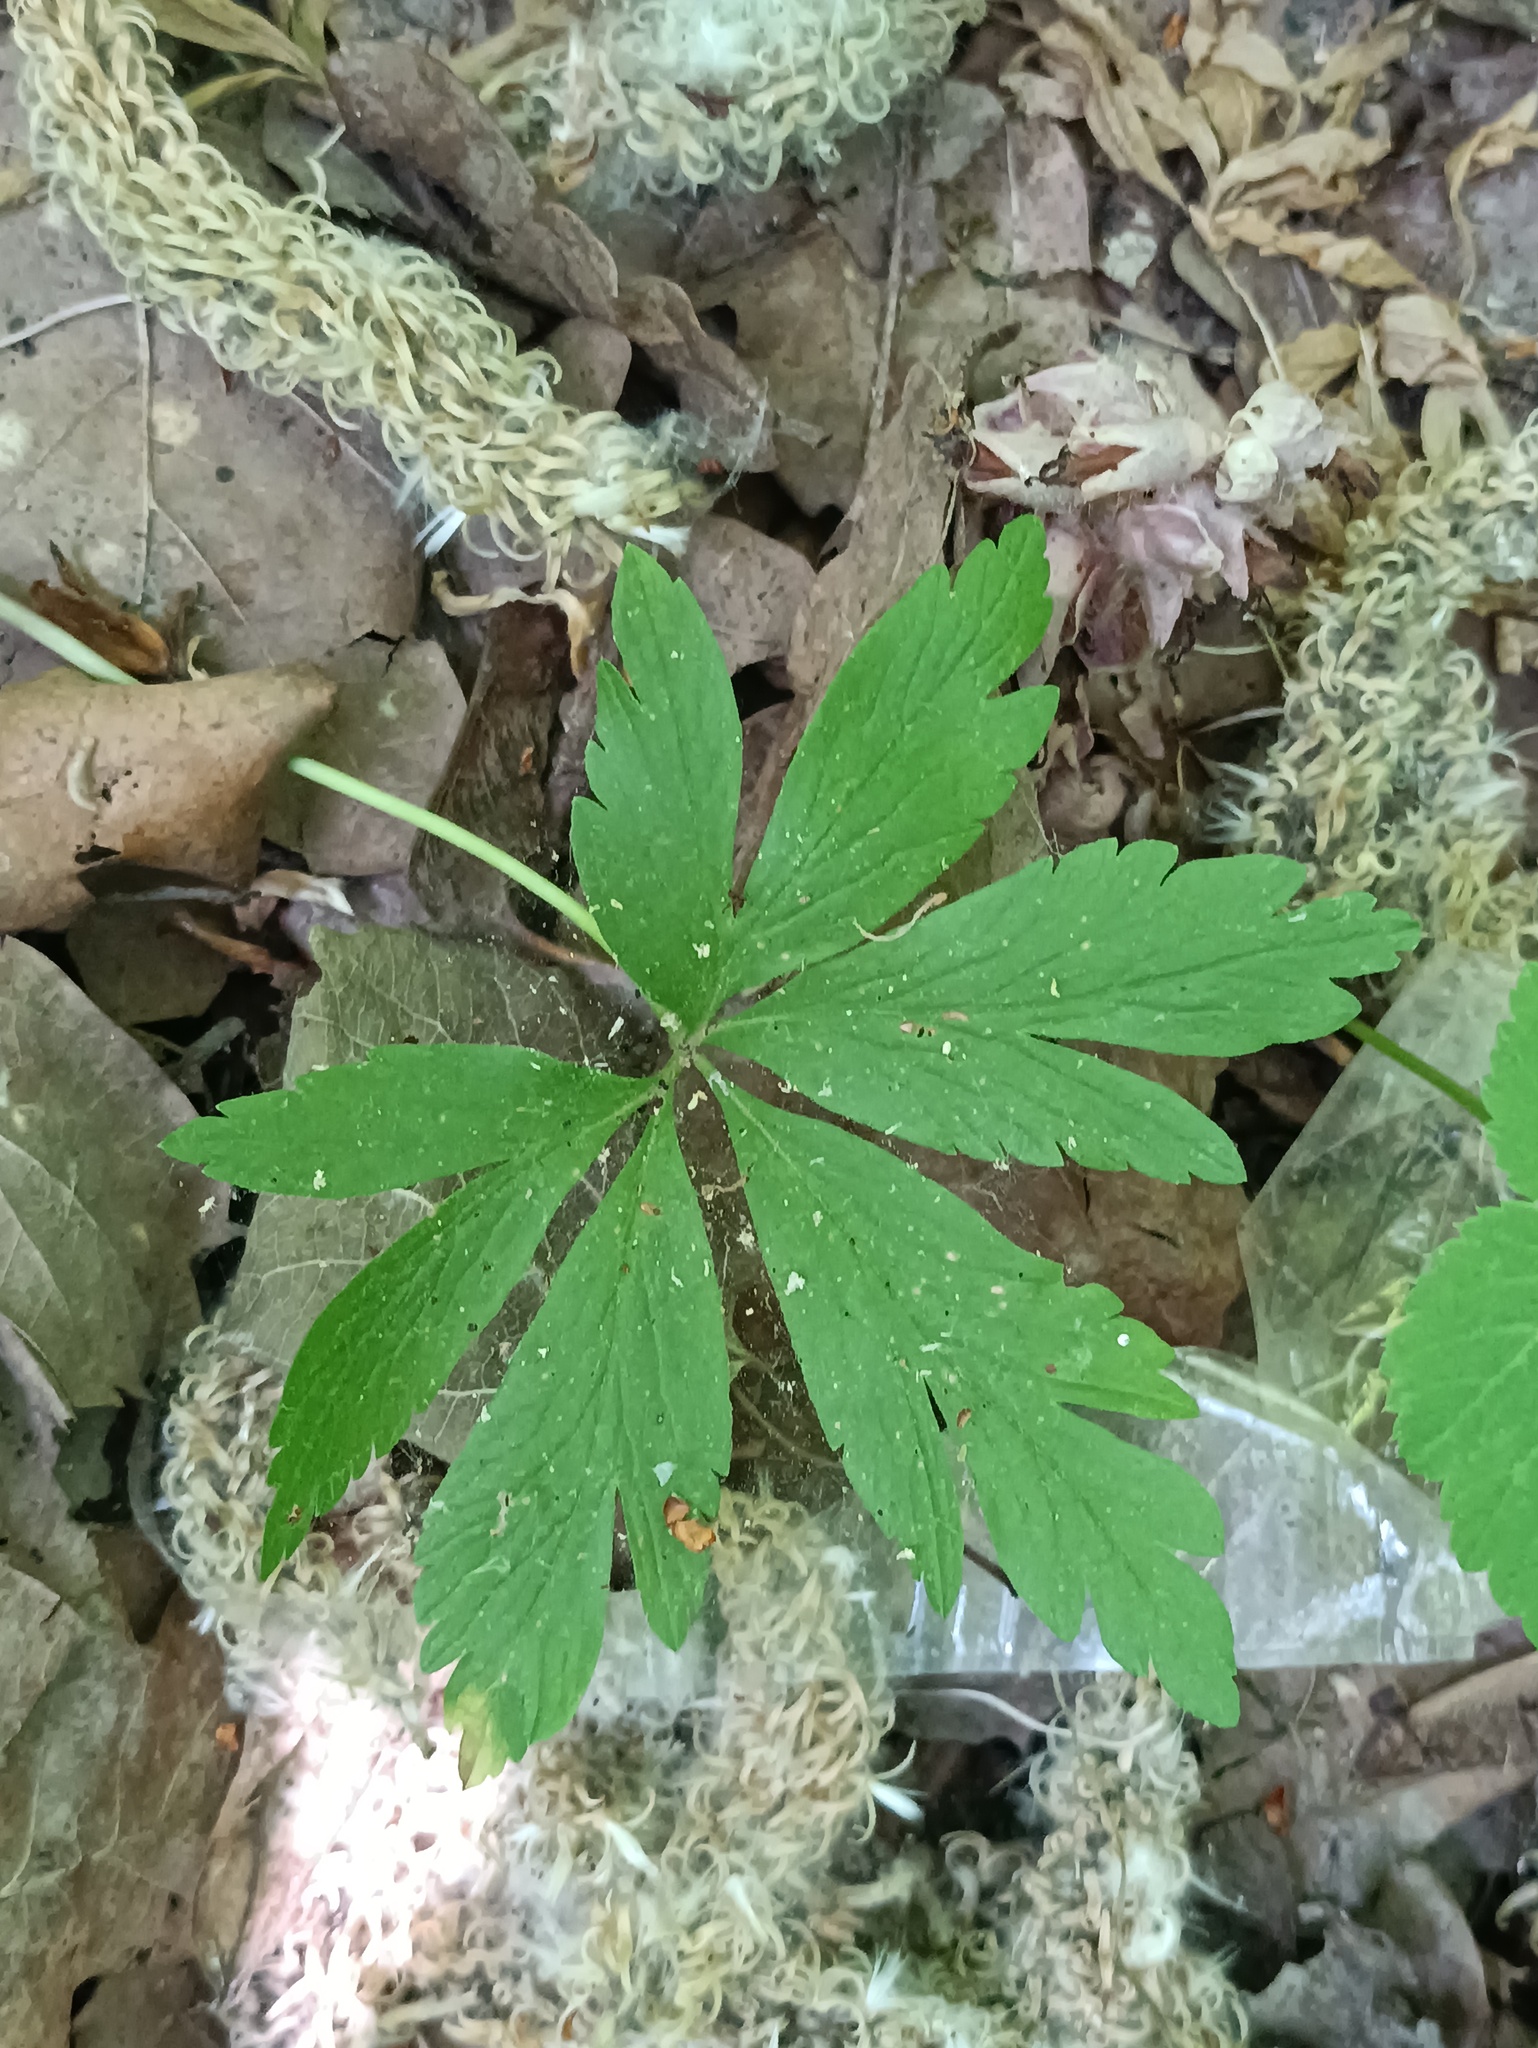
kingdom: Plantae
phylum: Tracheophyta
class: Magnoliopsida
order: Ranunculales
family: Ranunculaceae
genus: Anemone
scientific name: Anemone ranunculoides
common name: Yellow anemone
